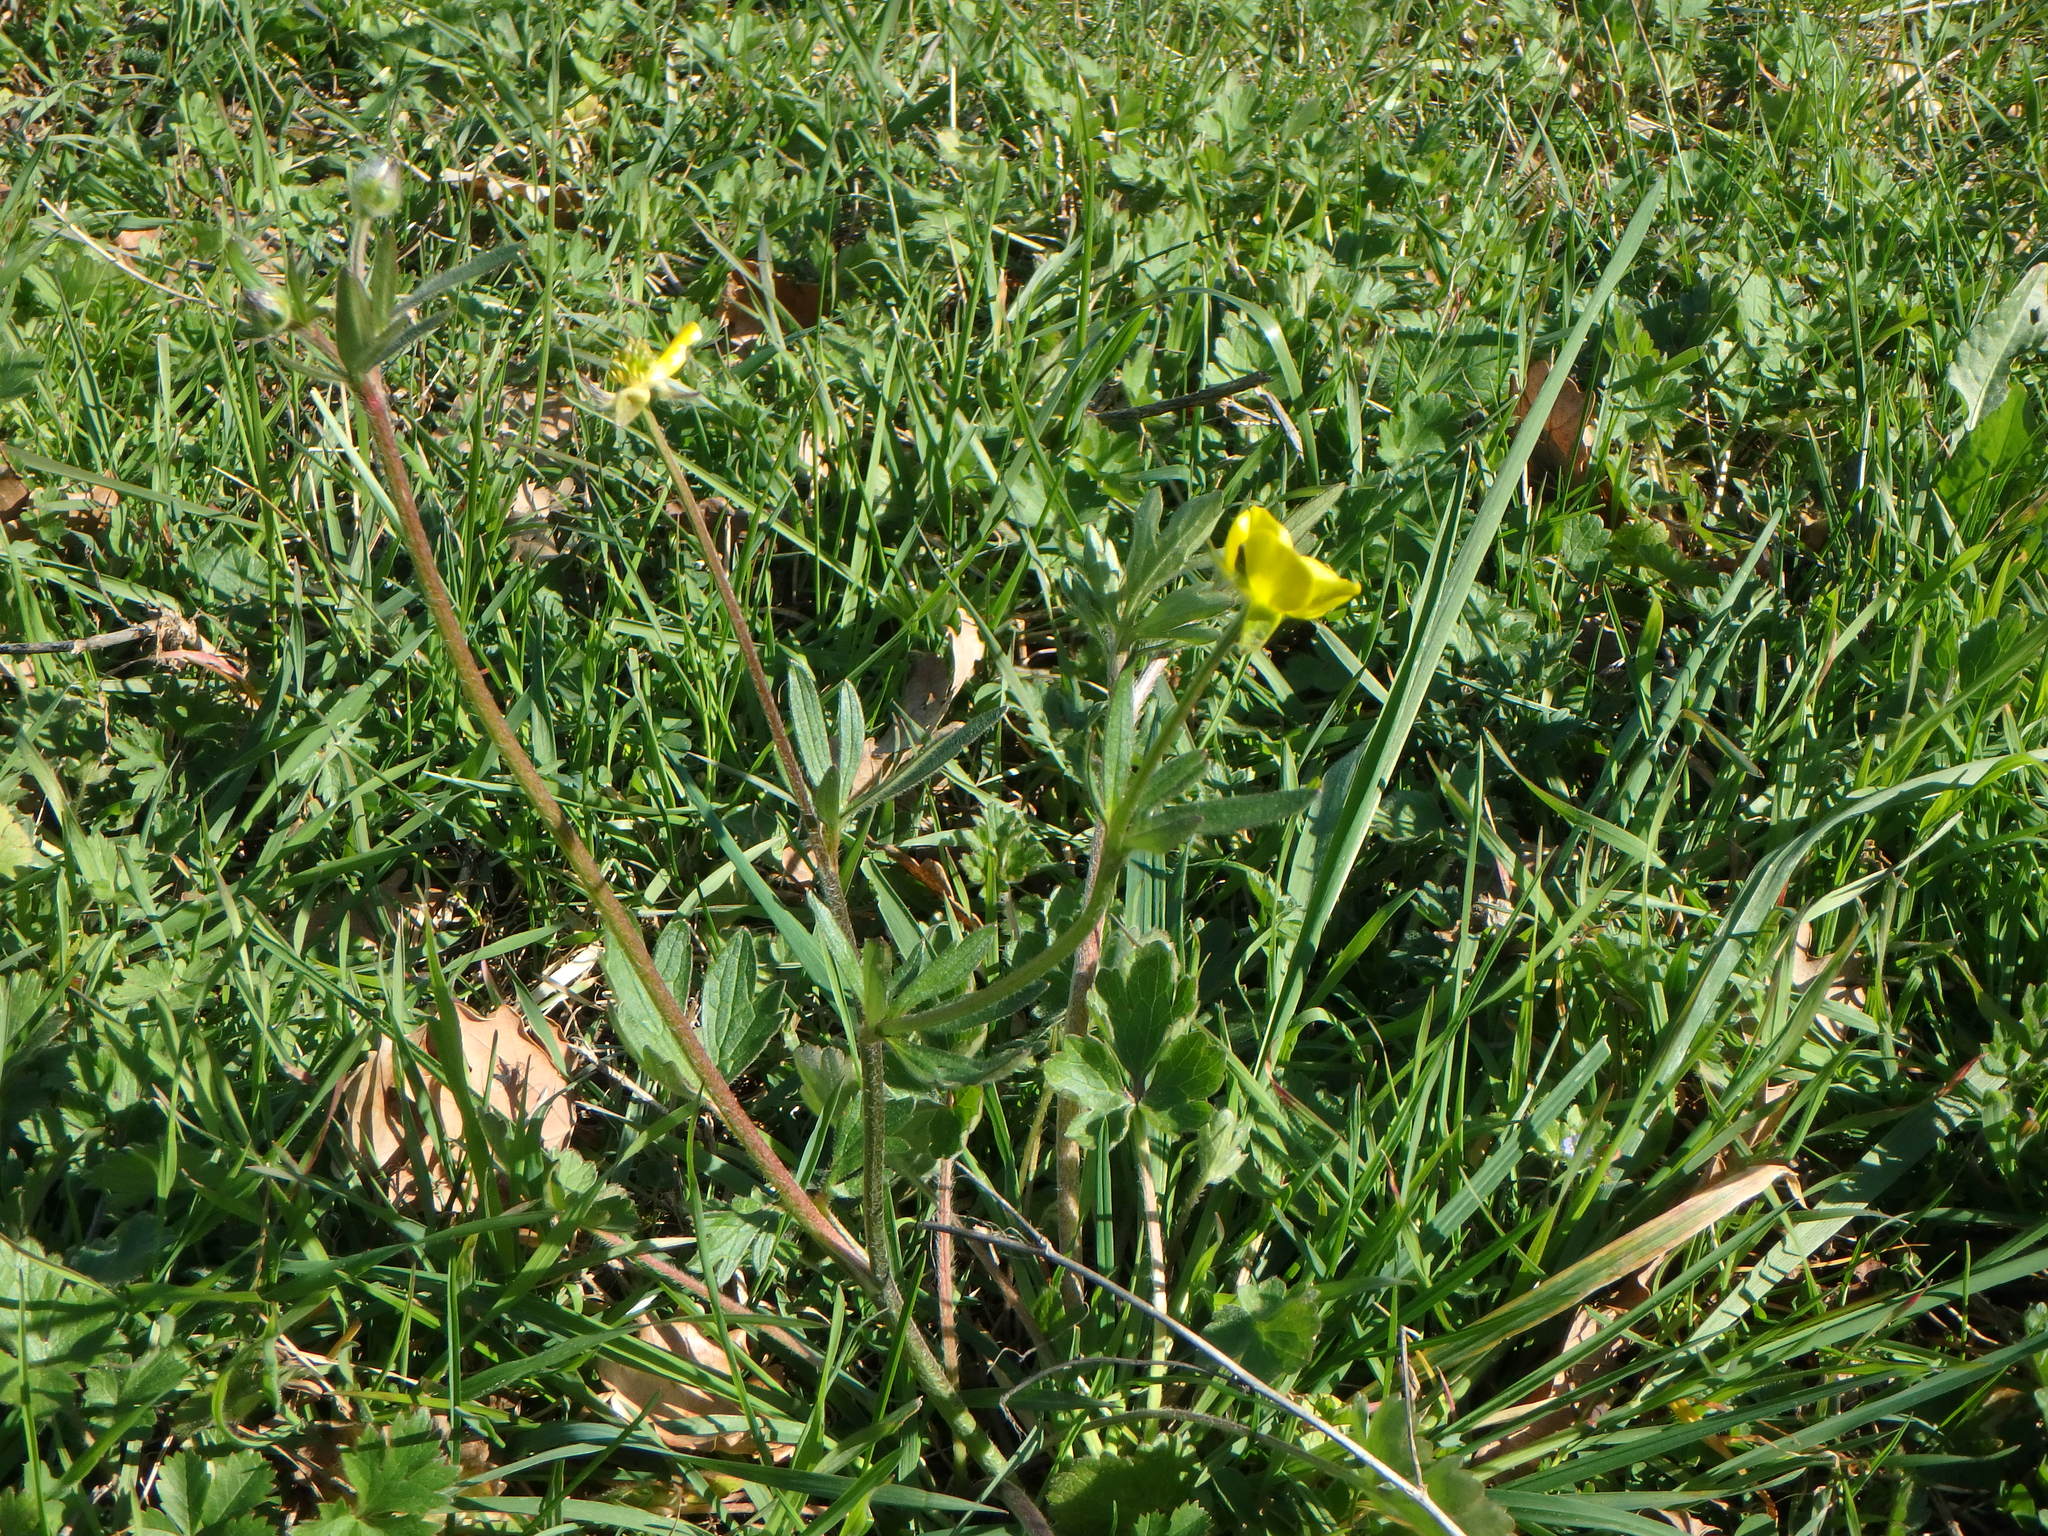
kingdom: Plantae
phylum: Tracheophyta
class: Magnoliopsida
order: Ranunculales
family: Ranunculaceae
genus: Ranunculus
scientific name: Ranunculus bulbosus
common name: Bulbous buttercup
